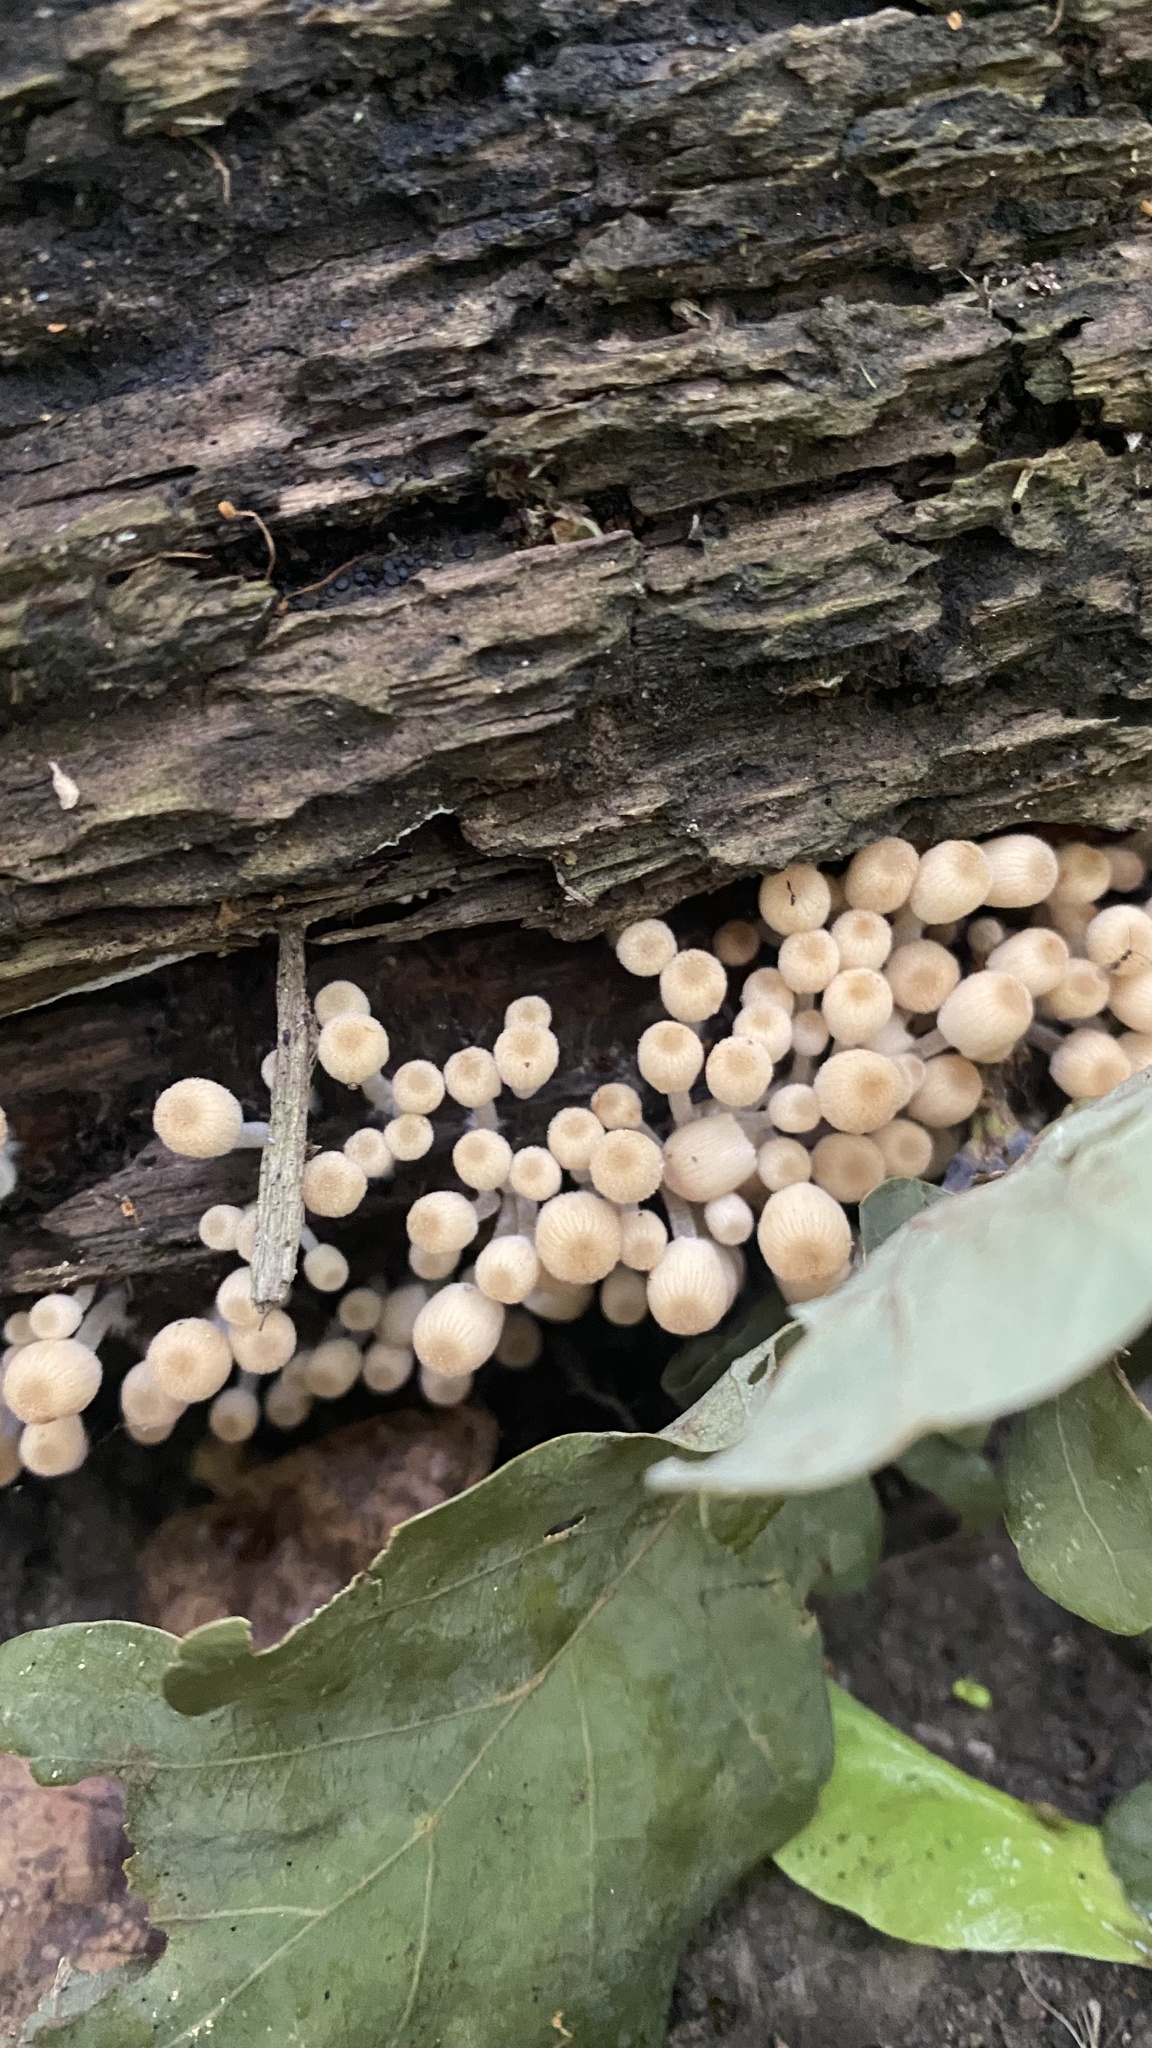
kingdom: Fungi
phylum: Basidiomycota
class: Agaricomycetes
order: Agaricales
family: Psathyrellaceae
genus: Coprinellus
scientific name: Coprinellus disseminatus
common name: Fairies' bonnets
